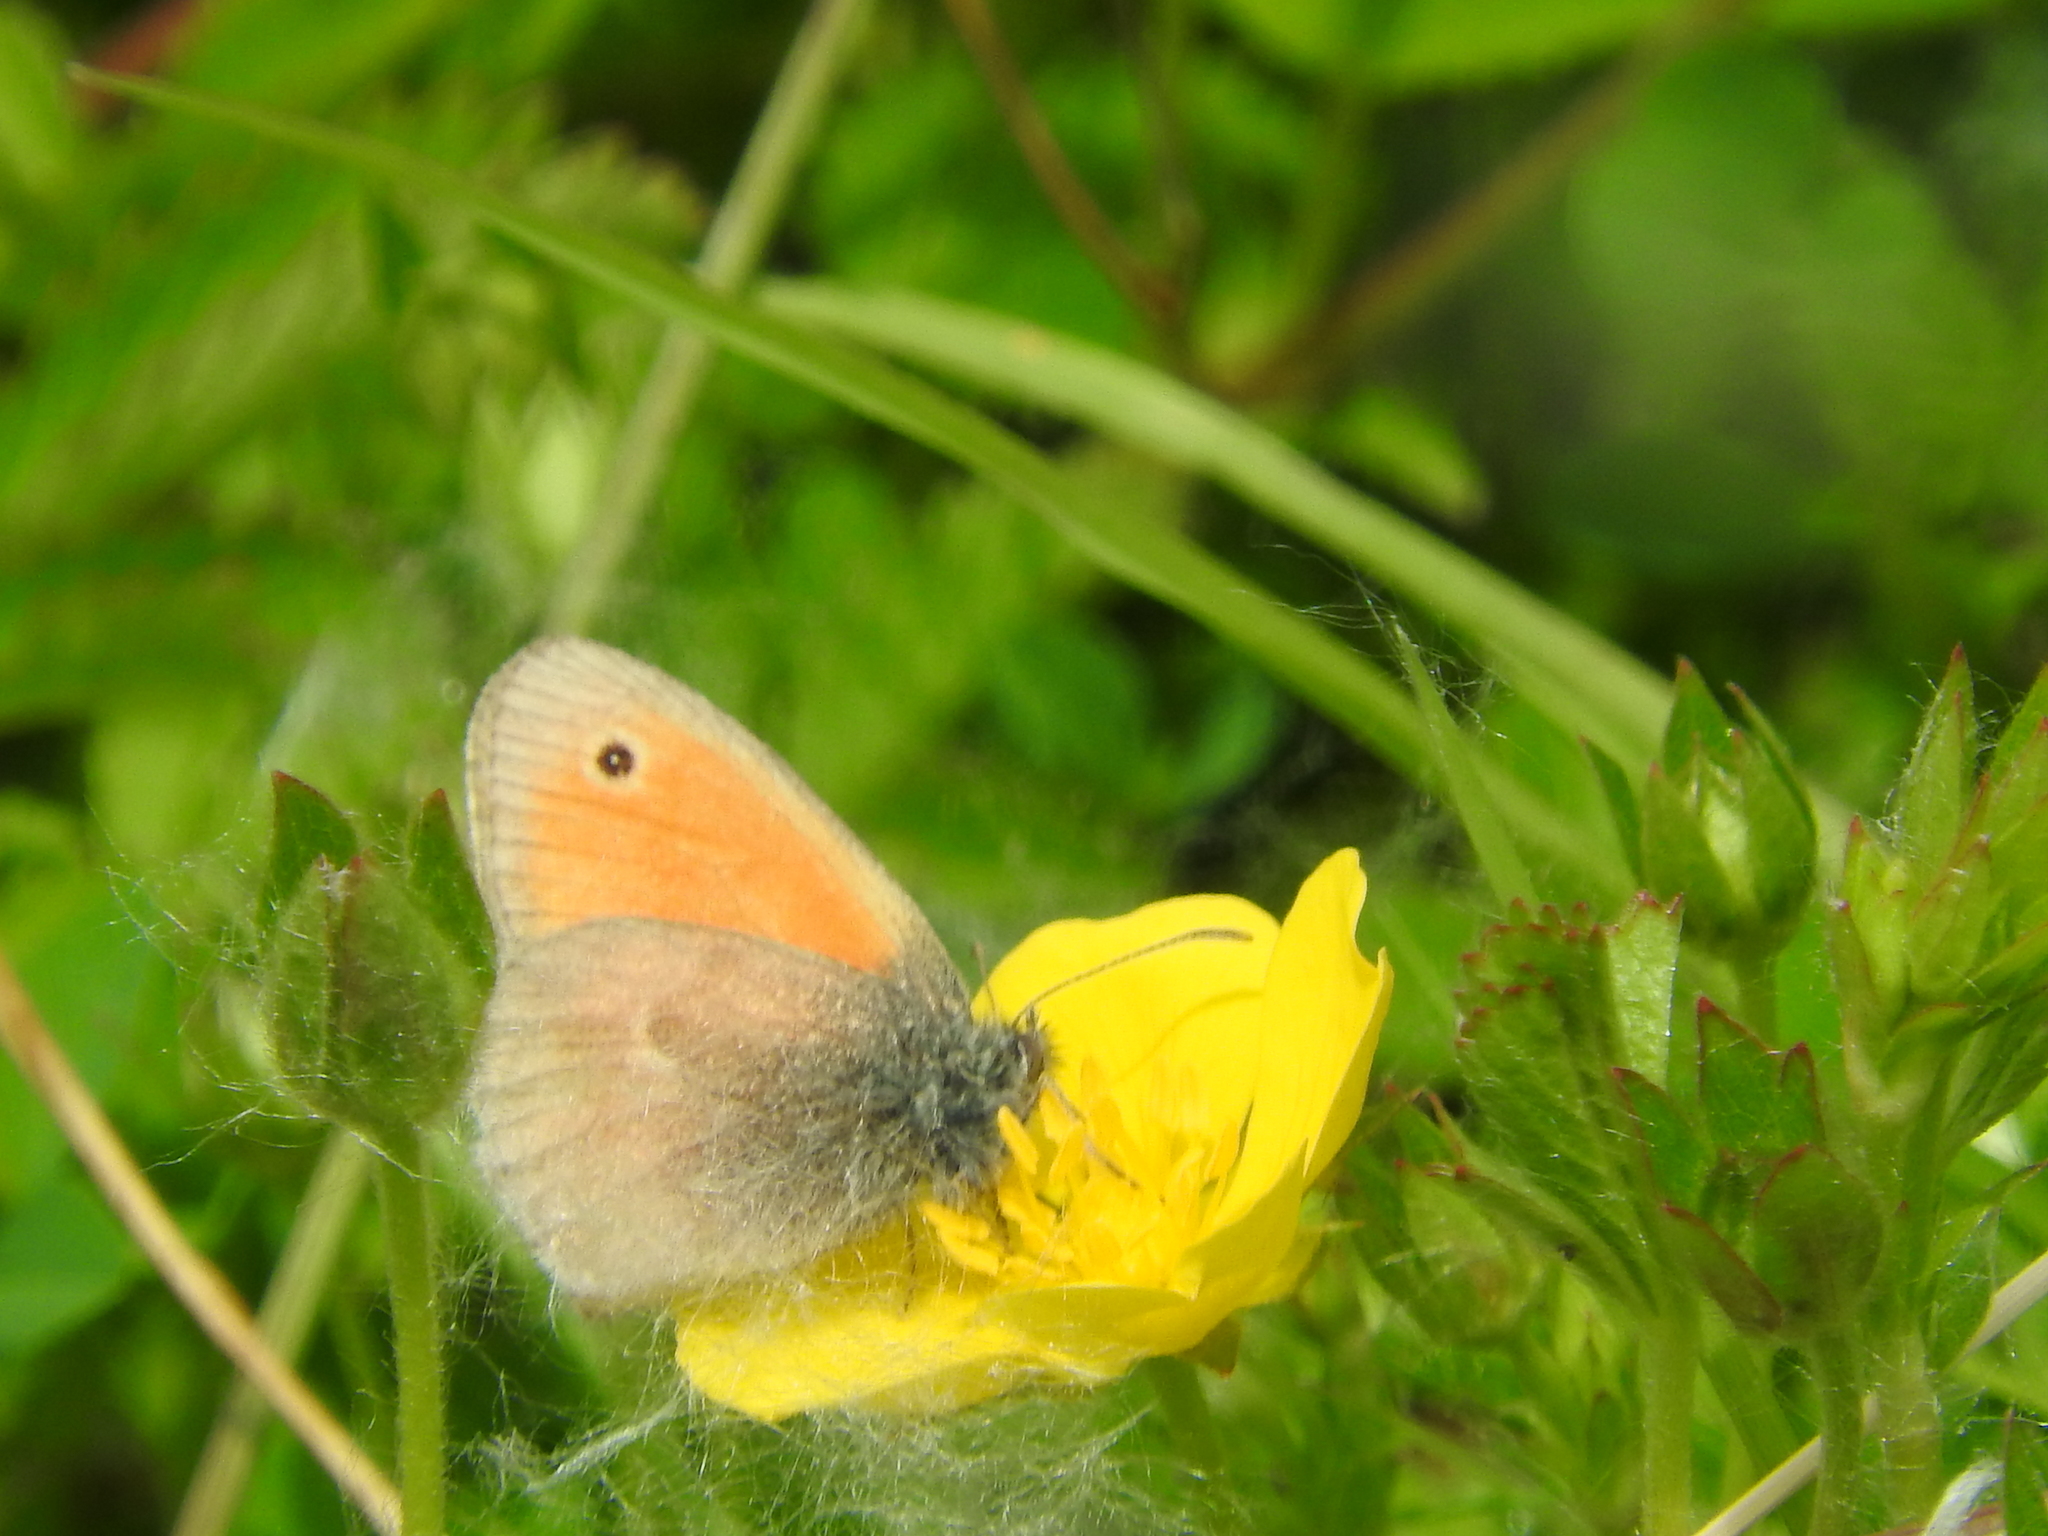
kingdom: Animalia
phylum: Arthropoda
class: Insecta
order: Lepidoptera
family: Nymphalidae
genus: Coenonympha
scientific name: Coenonympha pamphilus
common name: Small heath
